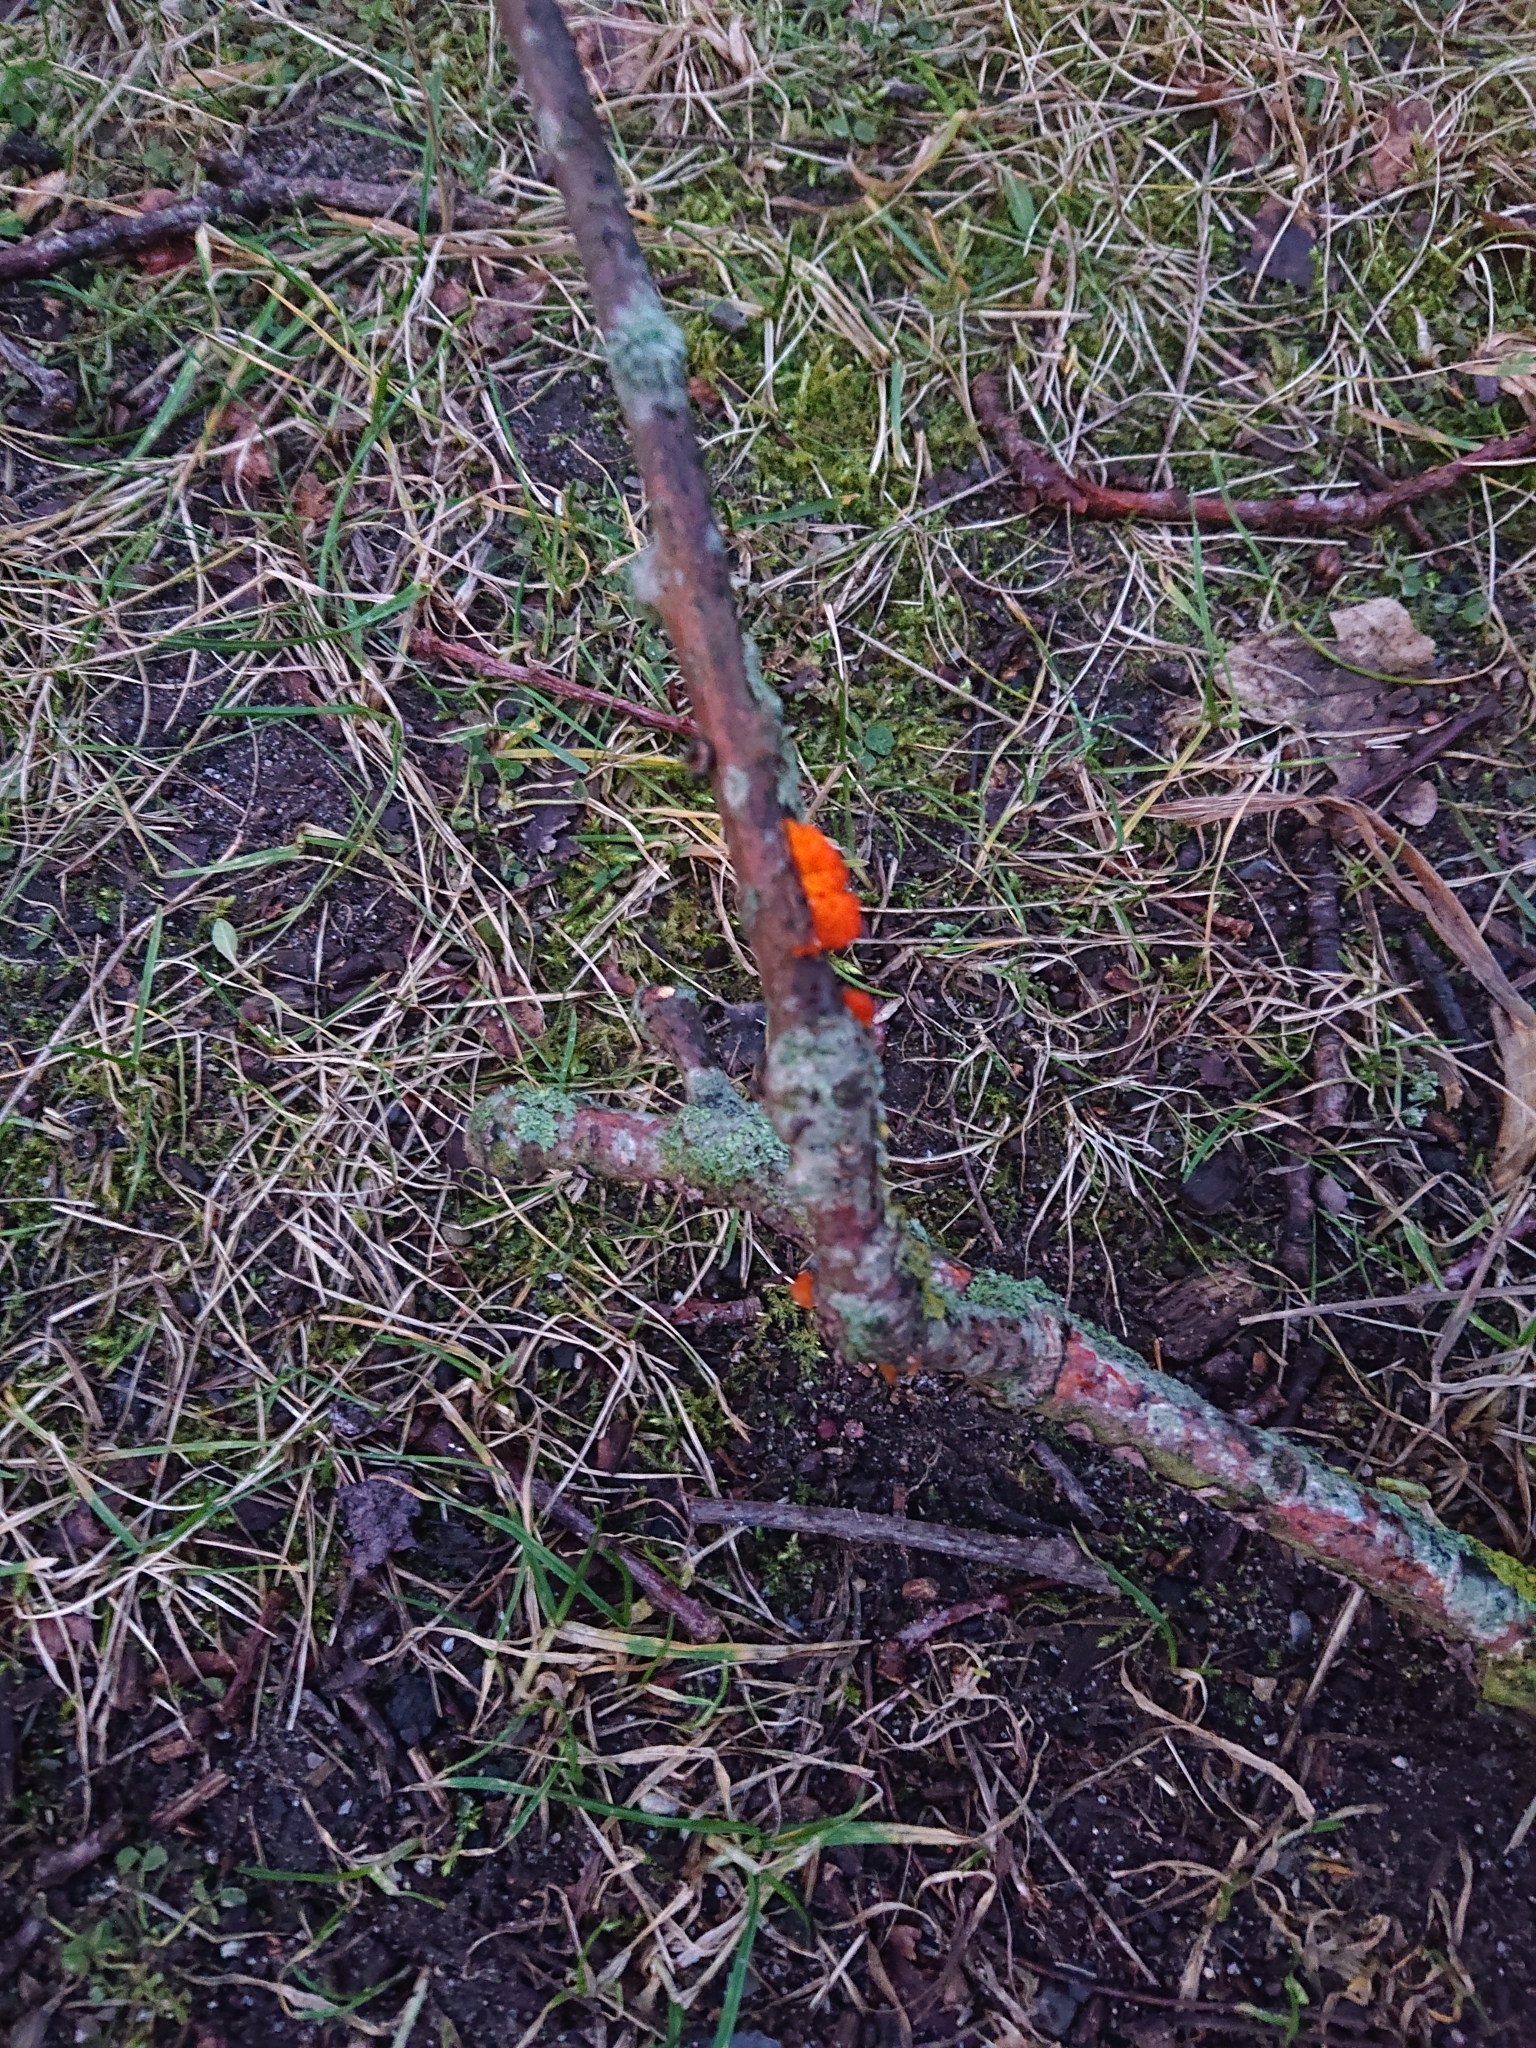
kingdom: Fungi
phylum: Basidiomycota
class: Tremellomycetes
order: Tremellales
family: Tremellaceae
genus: Tremella
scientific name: Tremella mesenterica
